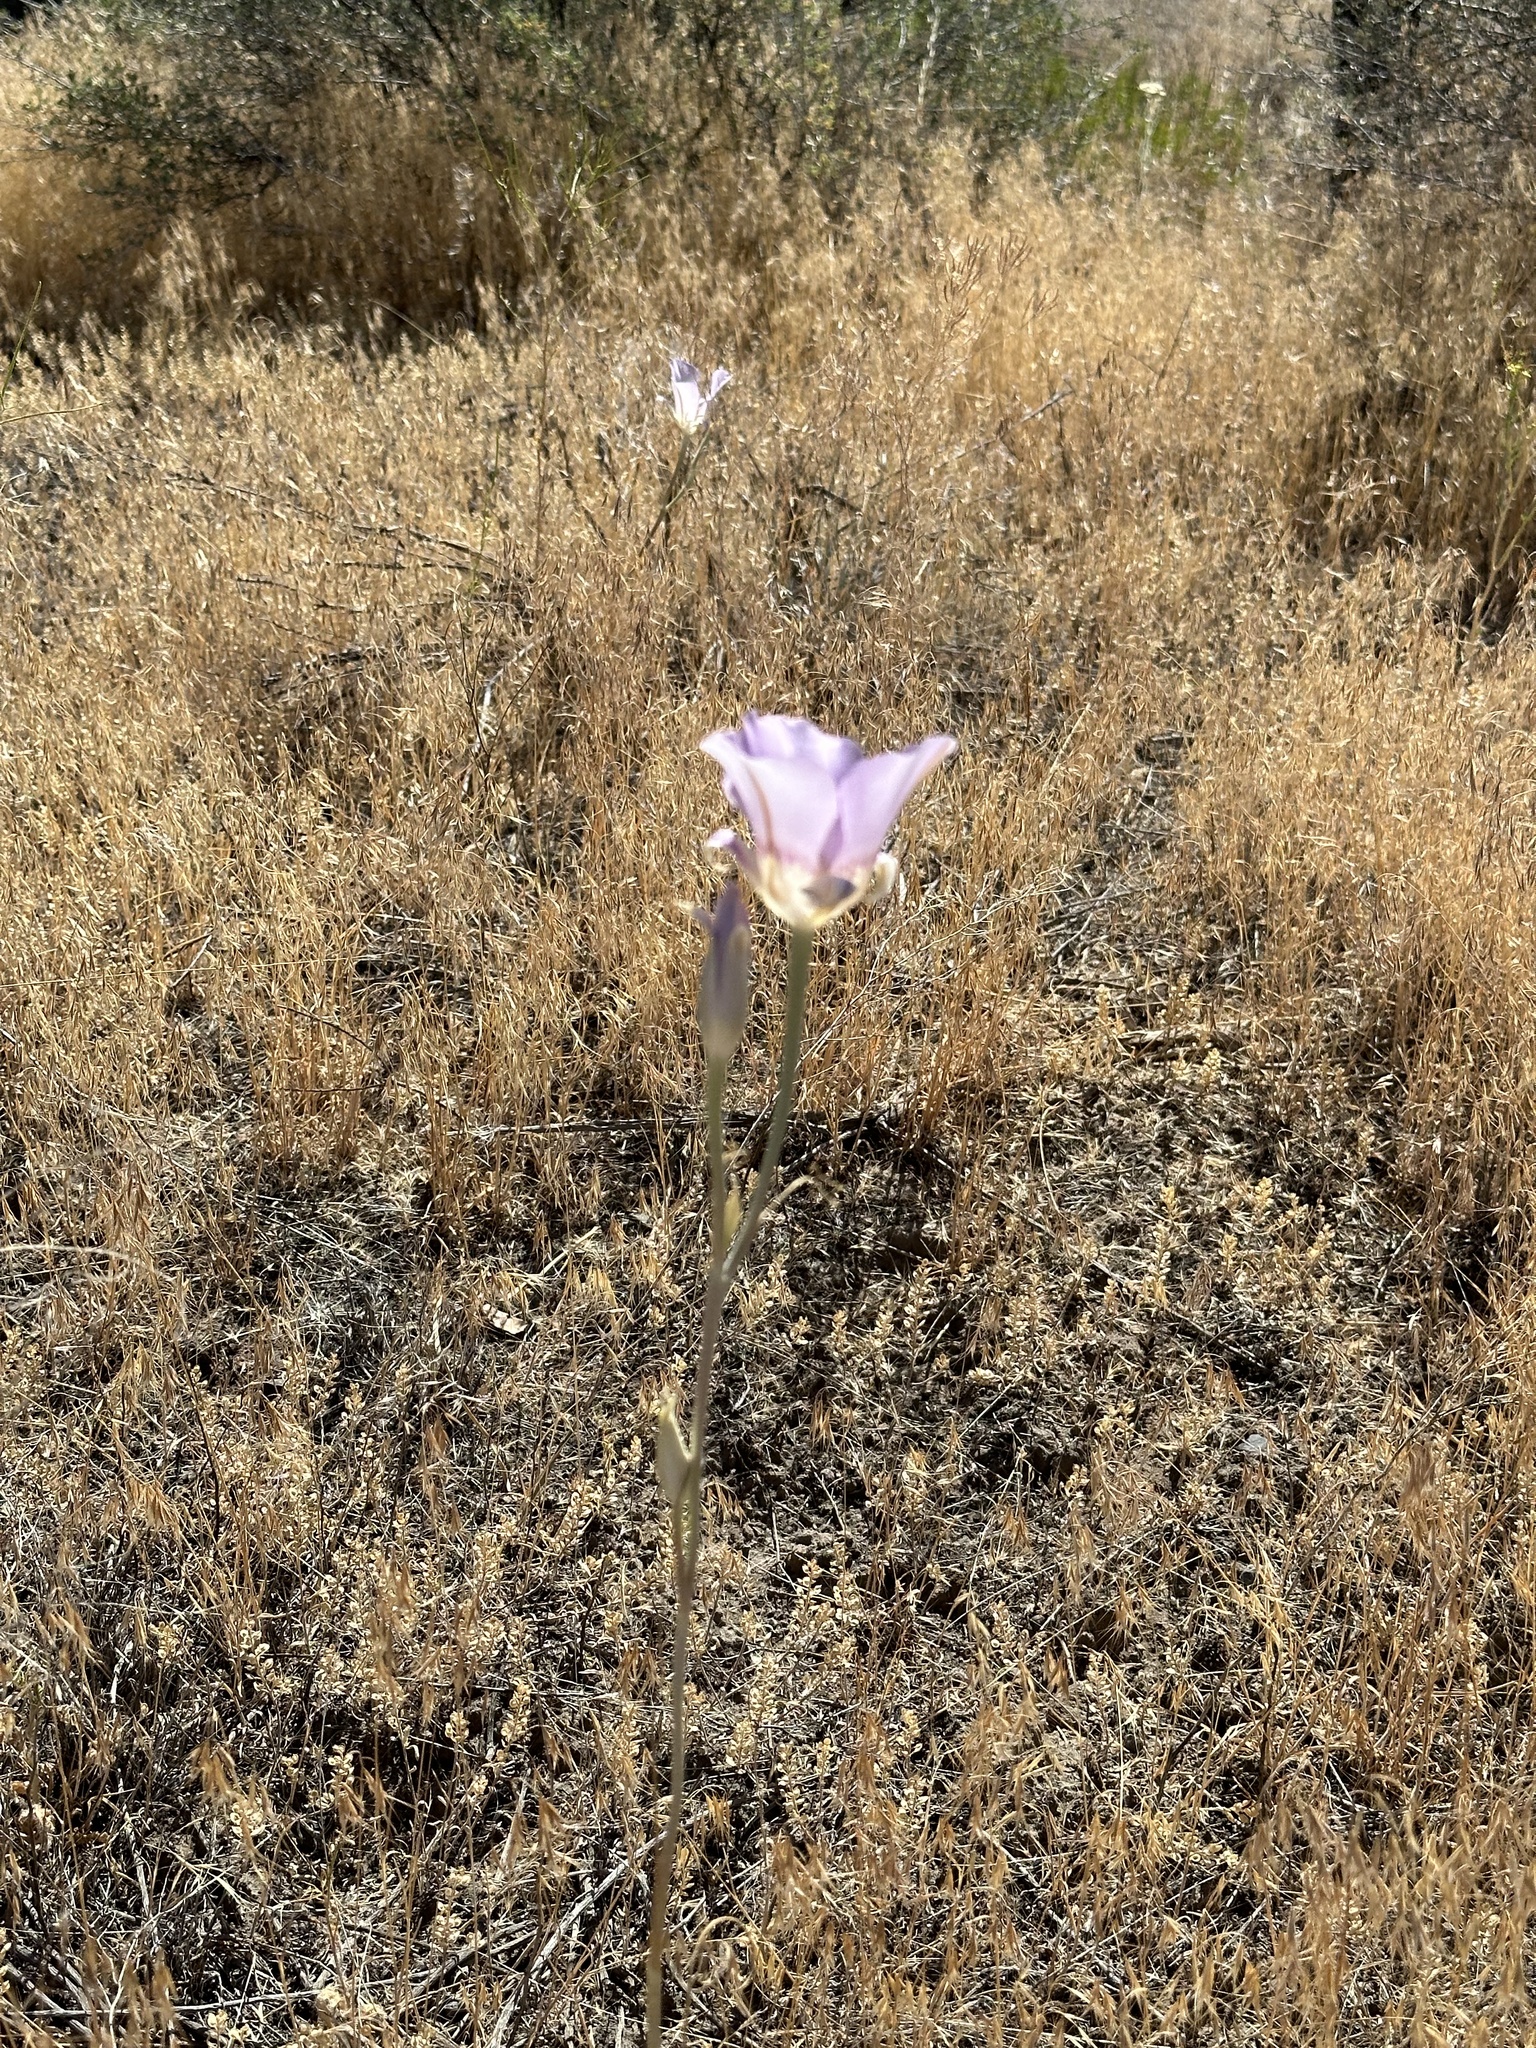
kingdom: Plantae
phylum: Tracheophyta
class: Liliopsida
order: Liliales
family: Liliaceae
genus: Calochortus
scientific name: Calochortus macrocarpus
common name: Green-band mariposa lily
